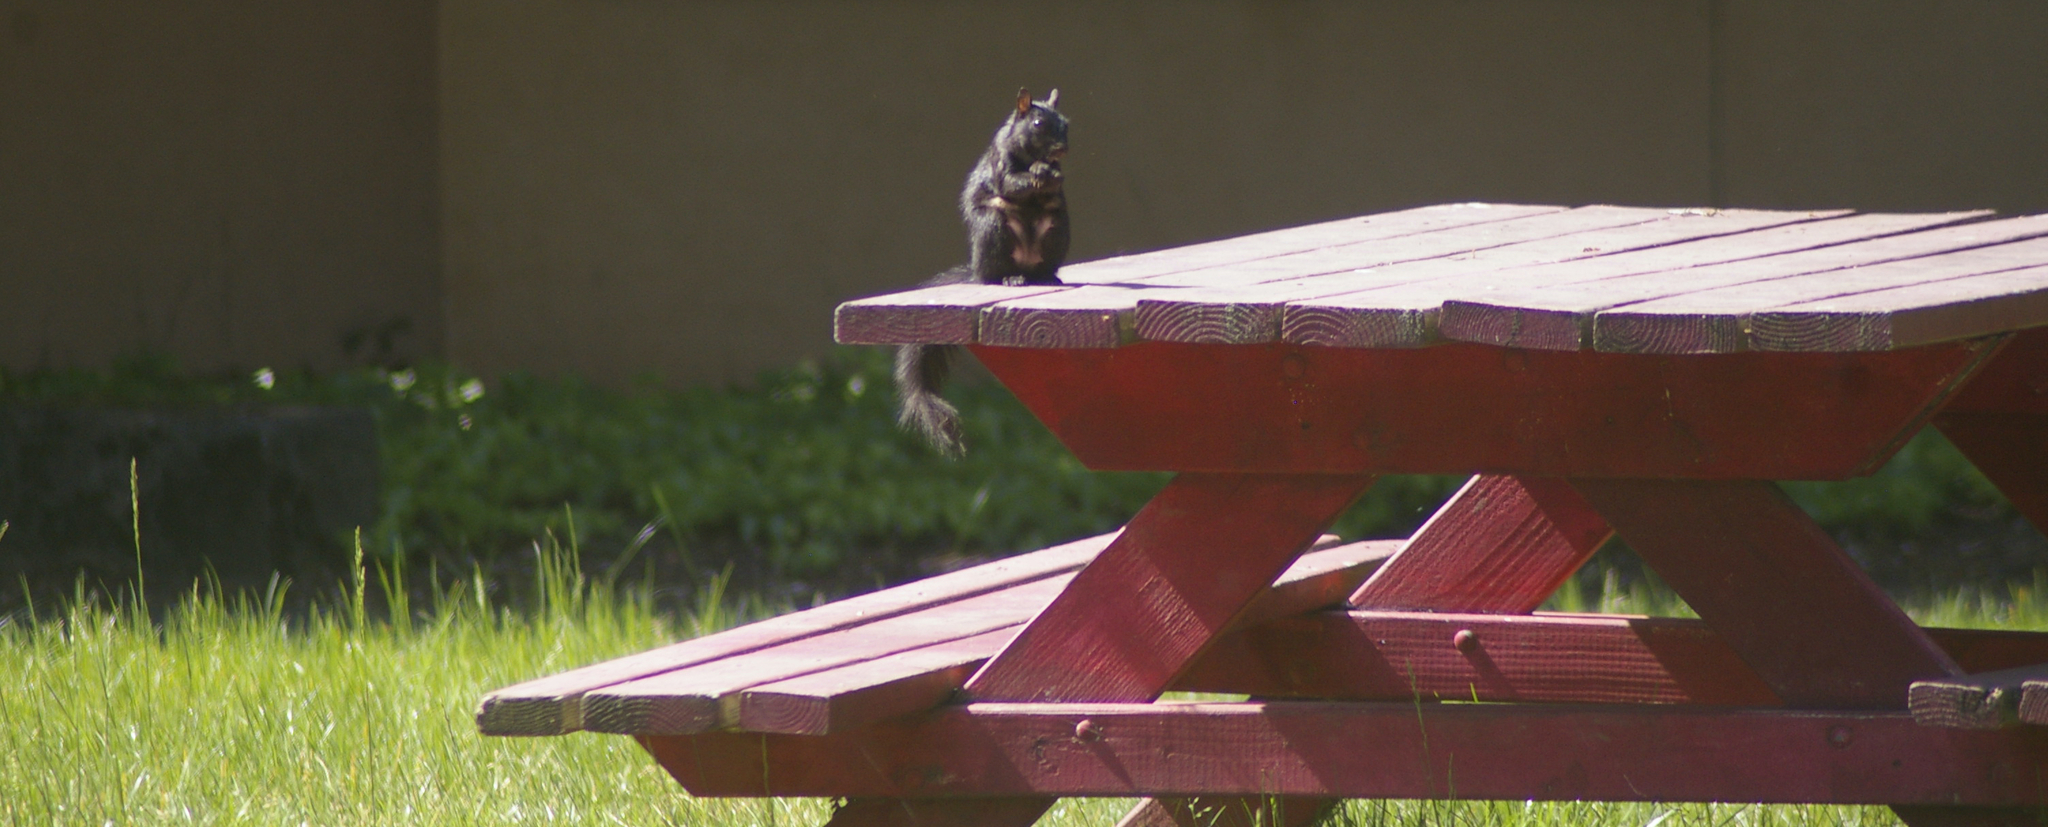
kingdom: Animalia
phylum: Chordata
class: Mammalia
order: Rodentia
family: Sciuridae
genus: Sciurus
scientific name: Sciurus carolinensis
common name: Eastern gray squirrel
